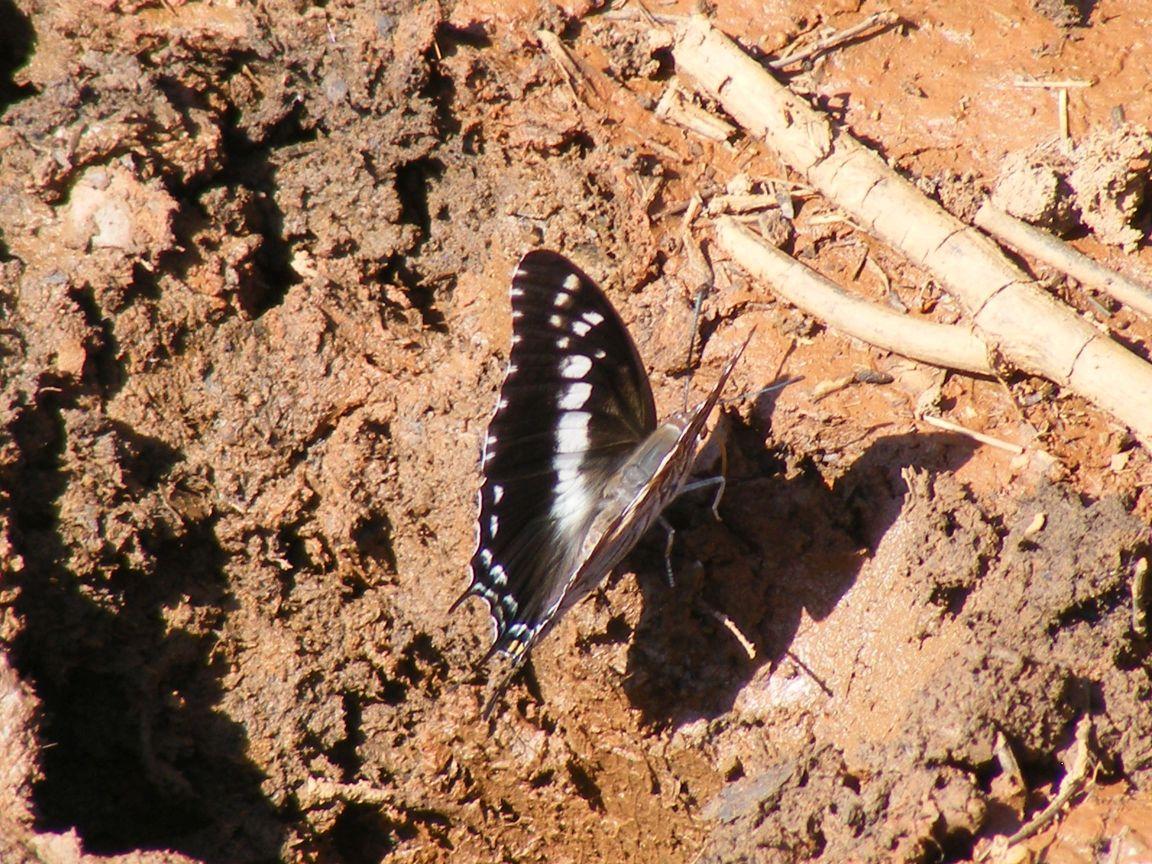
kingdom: Animalia
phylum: Arthropoda
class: Insecta
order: Lepidoptera
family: Nymphalidae
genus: Charaxes
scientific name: Charaxes achaemenes
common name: Bushveld charaxes
